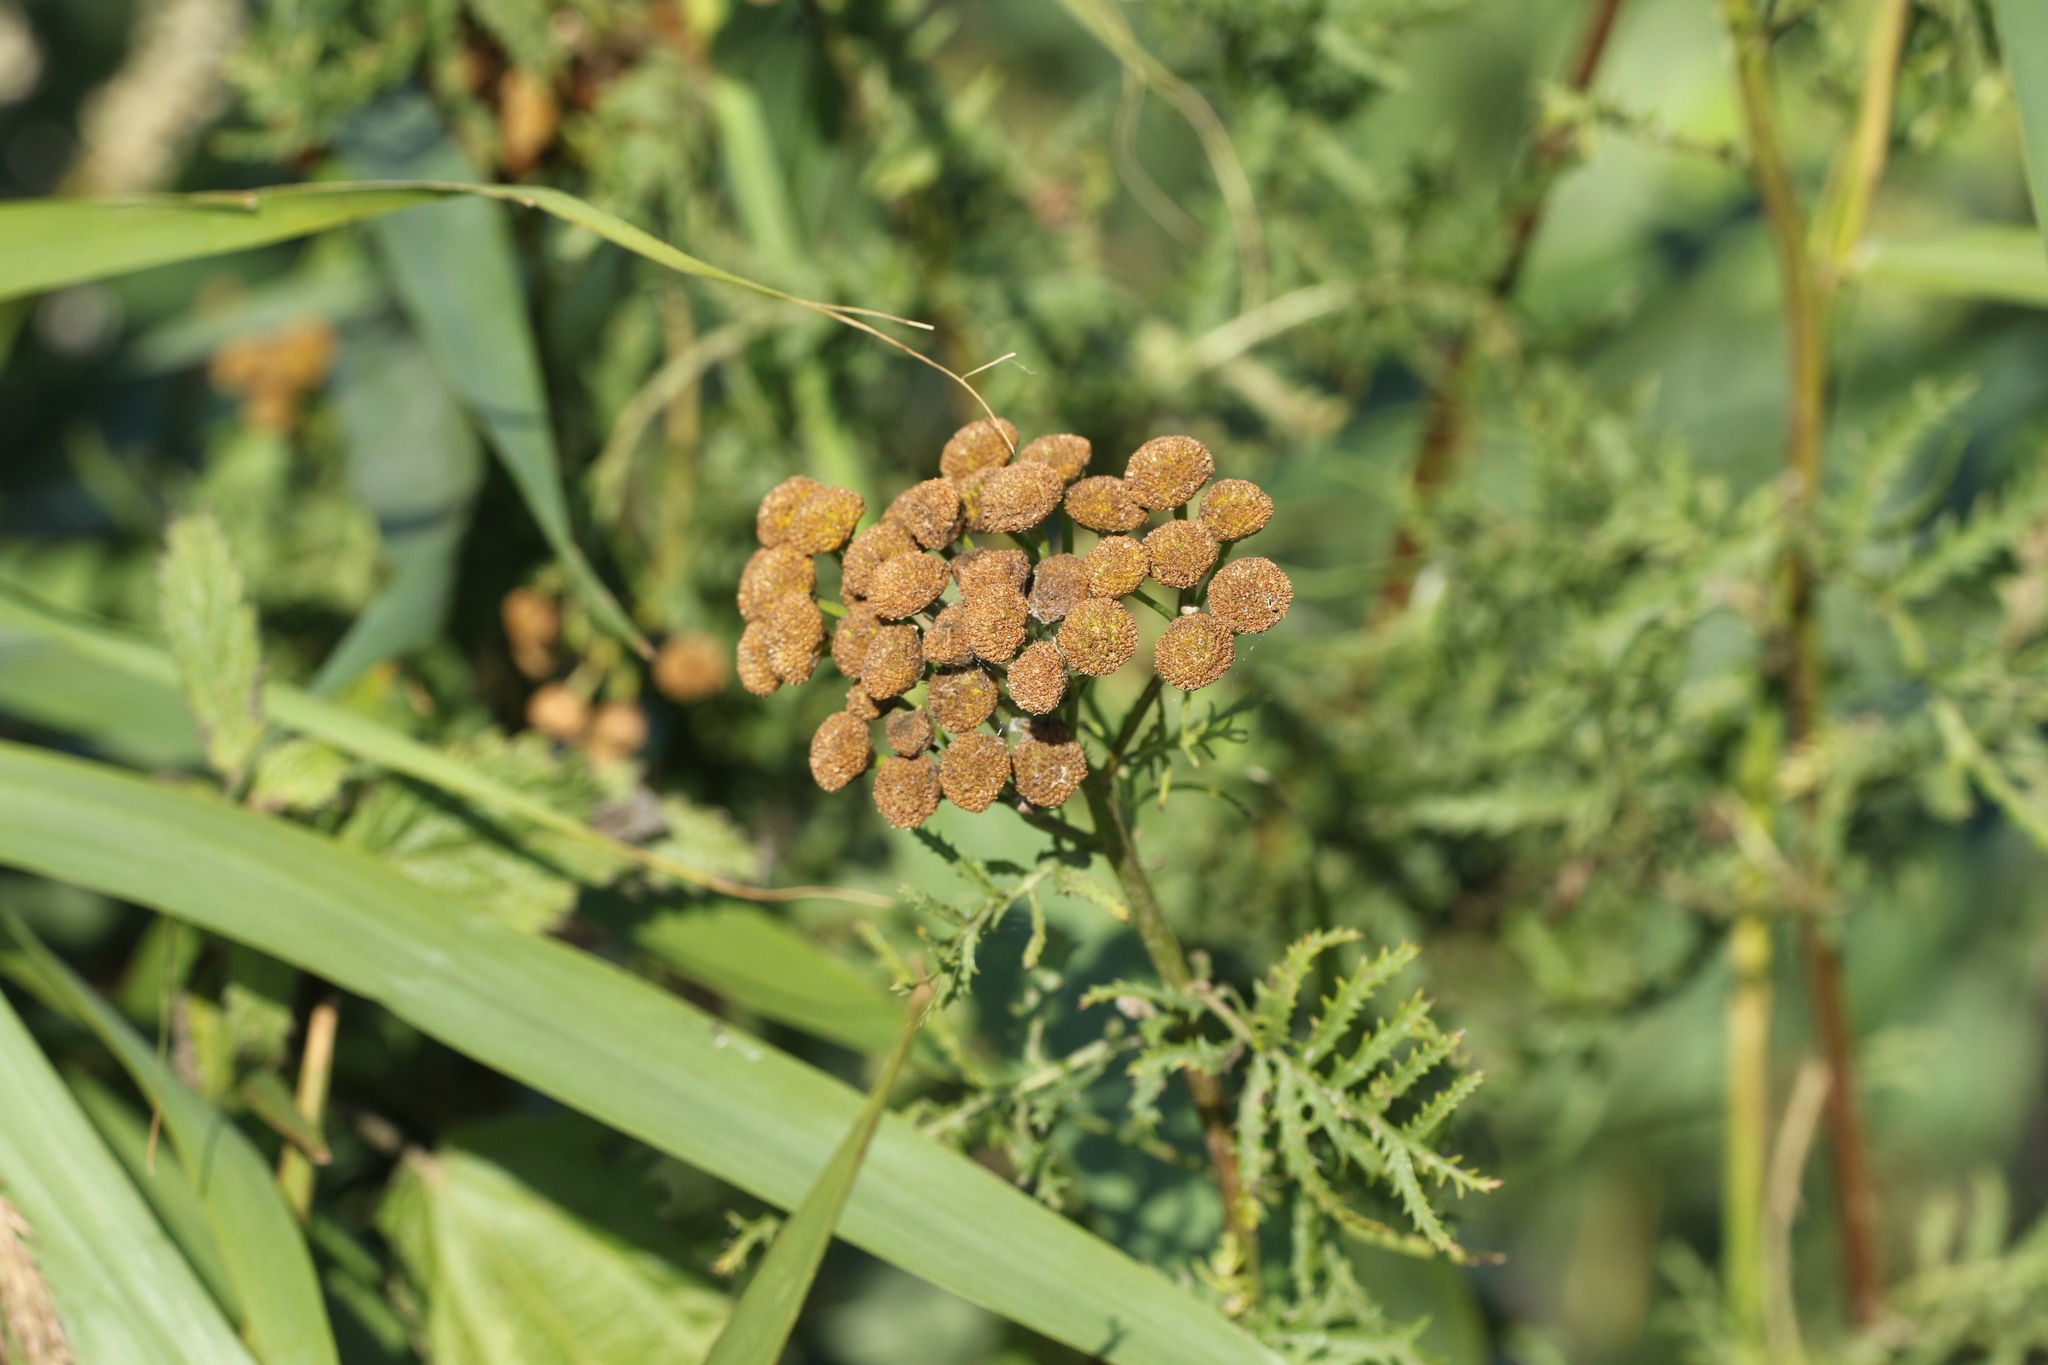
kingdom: Plantae
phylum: Tracheophyta
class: Magnoliopsida
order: Asterales
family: Asteraceae
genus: Tanacetum
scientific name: Tanacetum vulgare
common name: Common tansy
